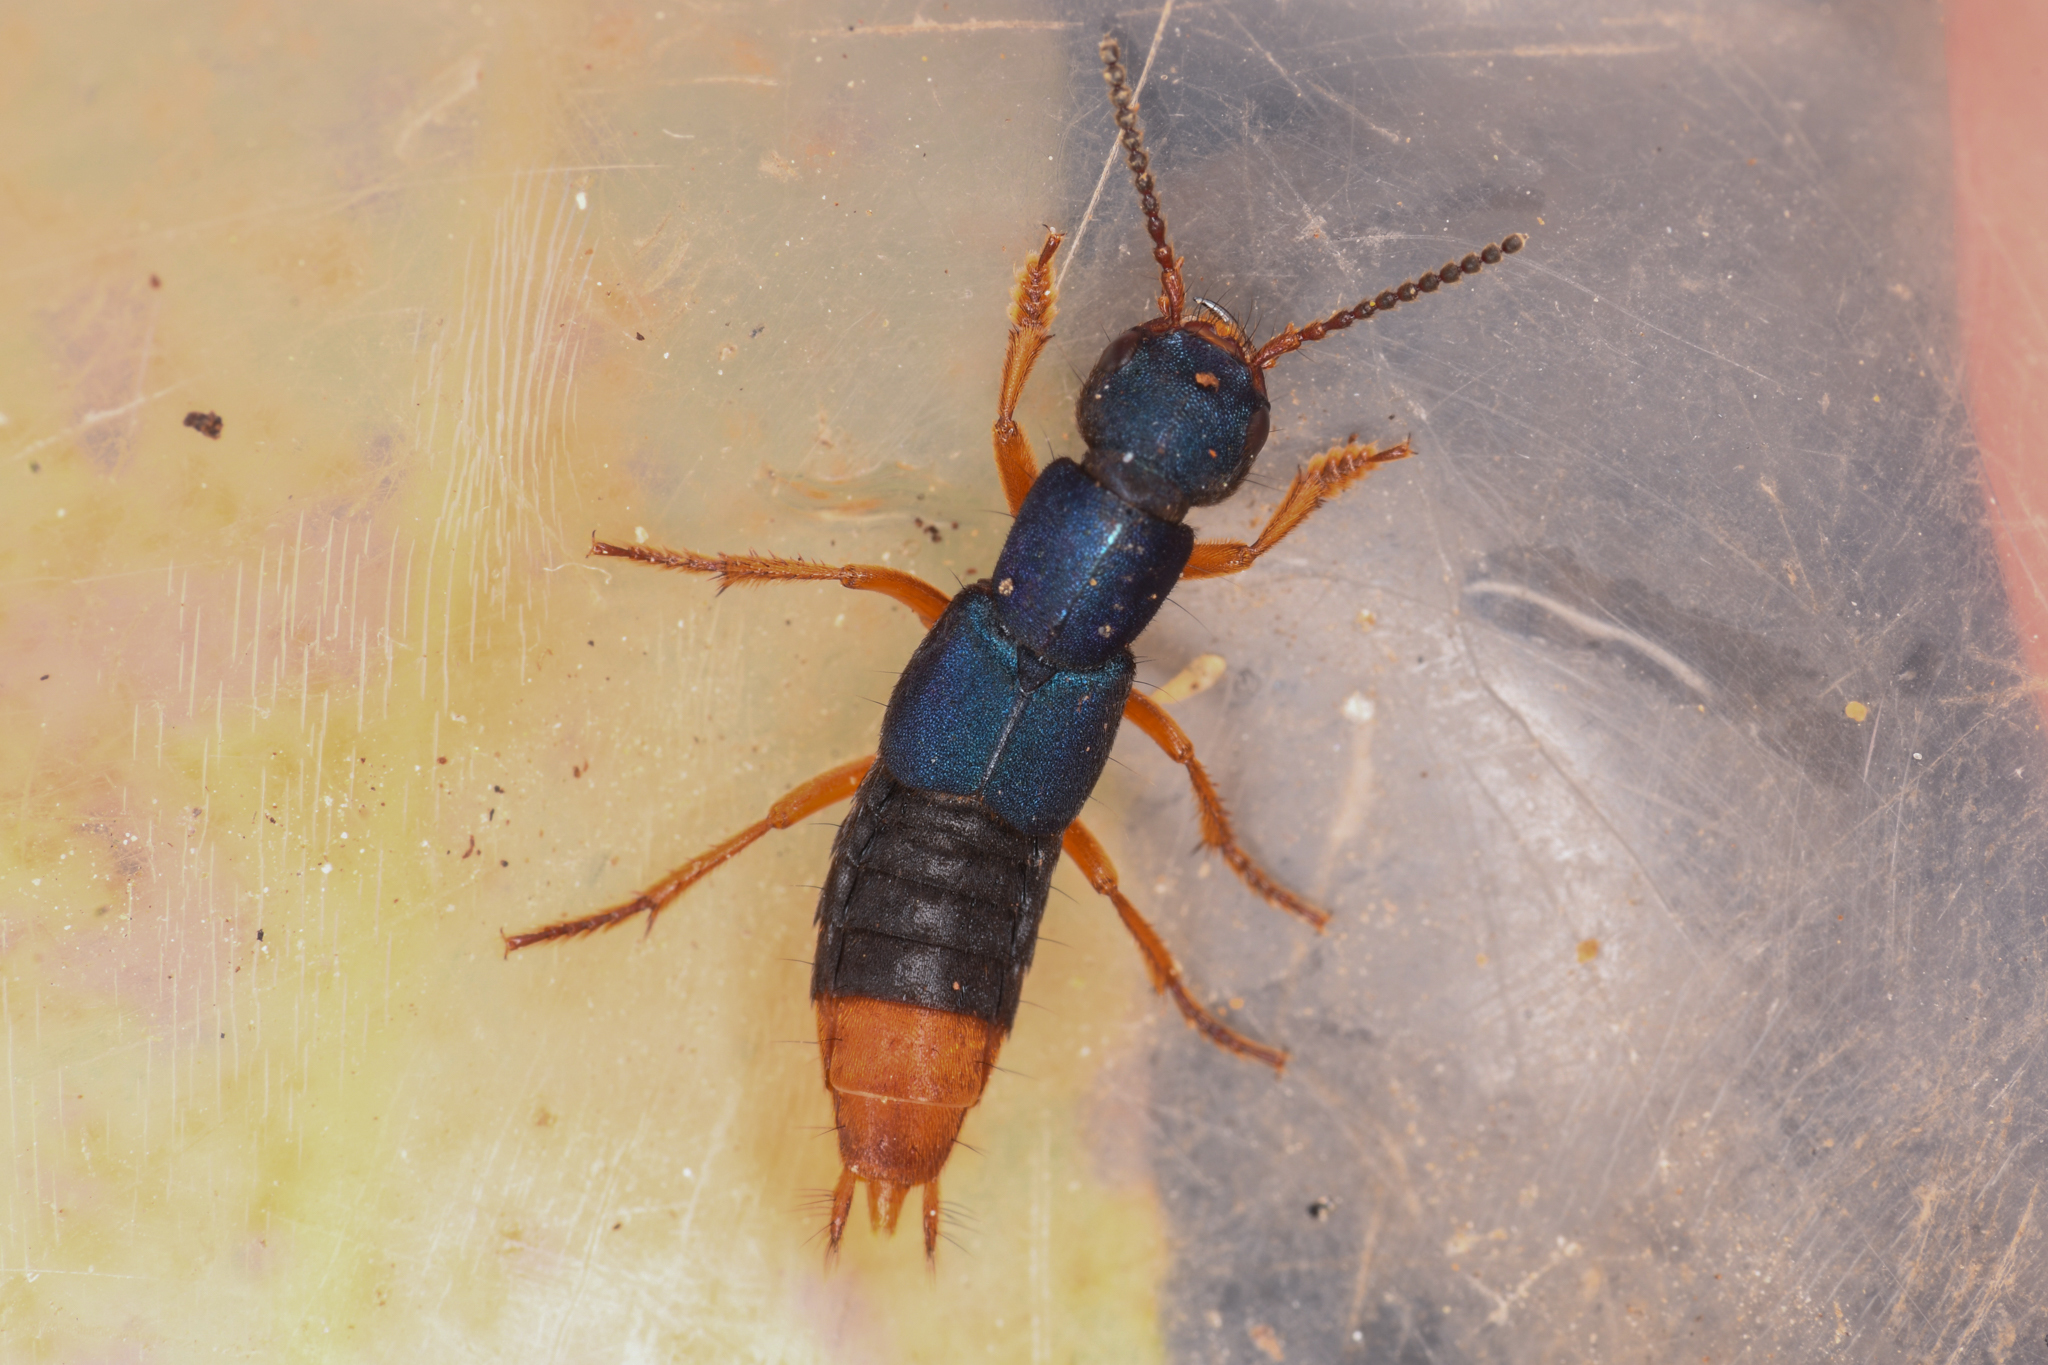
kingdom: Animalia
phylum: Arthropoda
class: Insecta
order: Coleoptera
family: Staphylinidae
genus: Dinothenarus
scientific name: Dinothenarus saphyrinus
